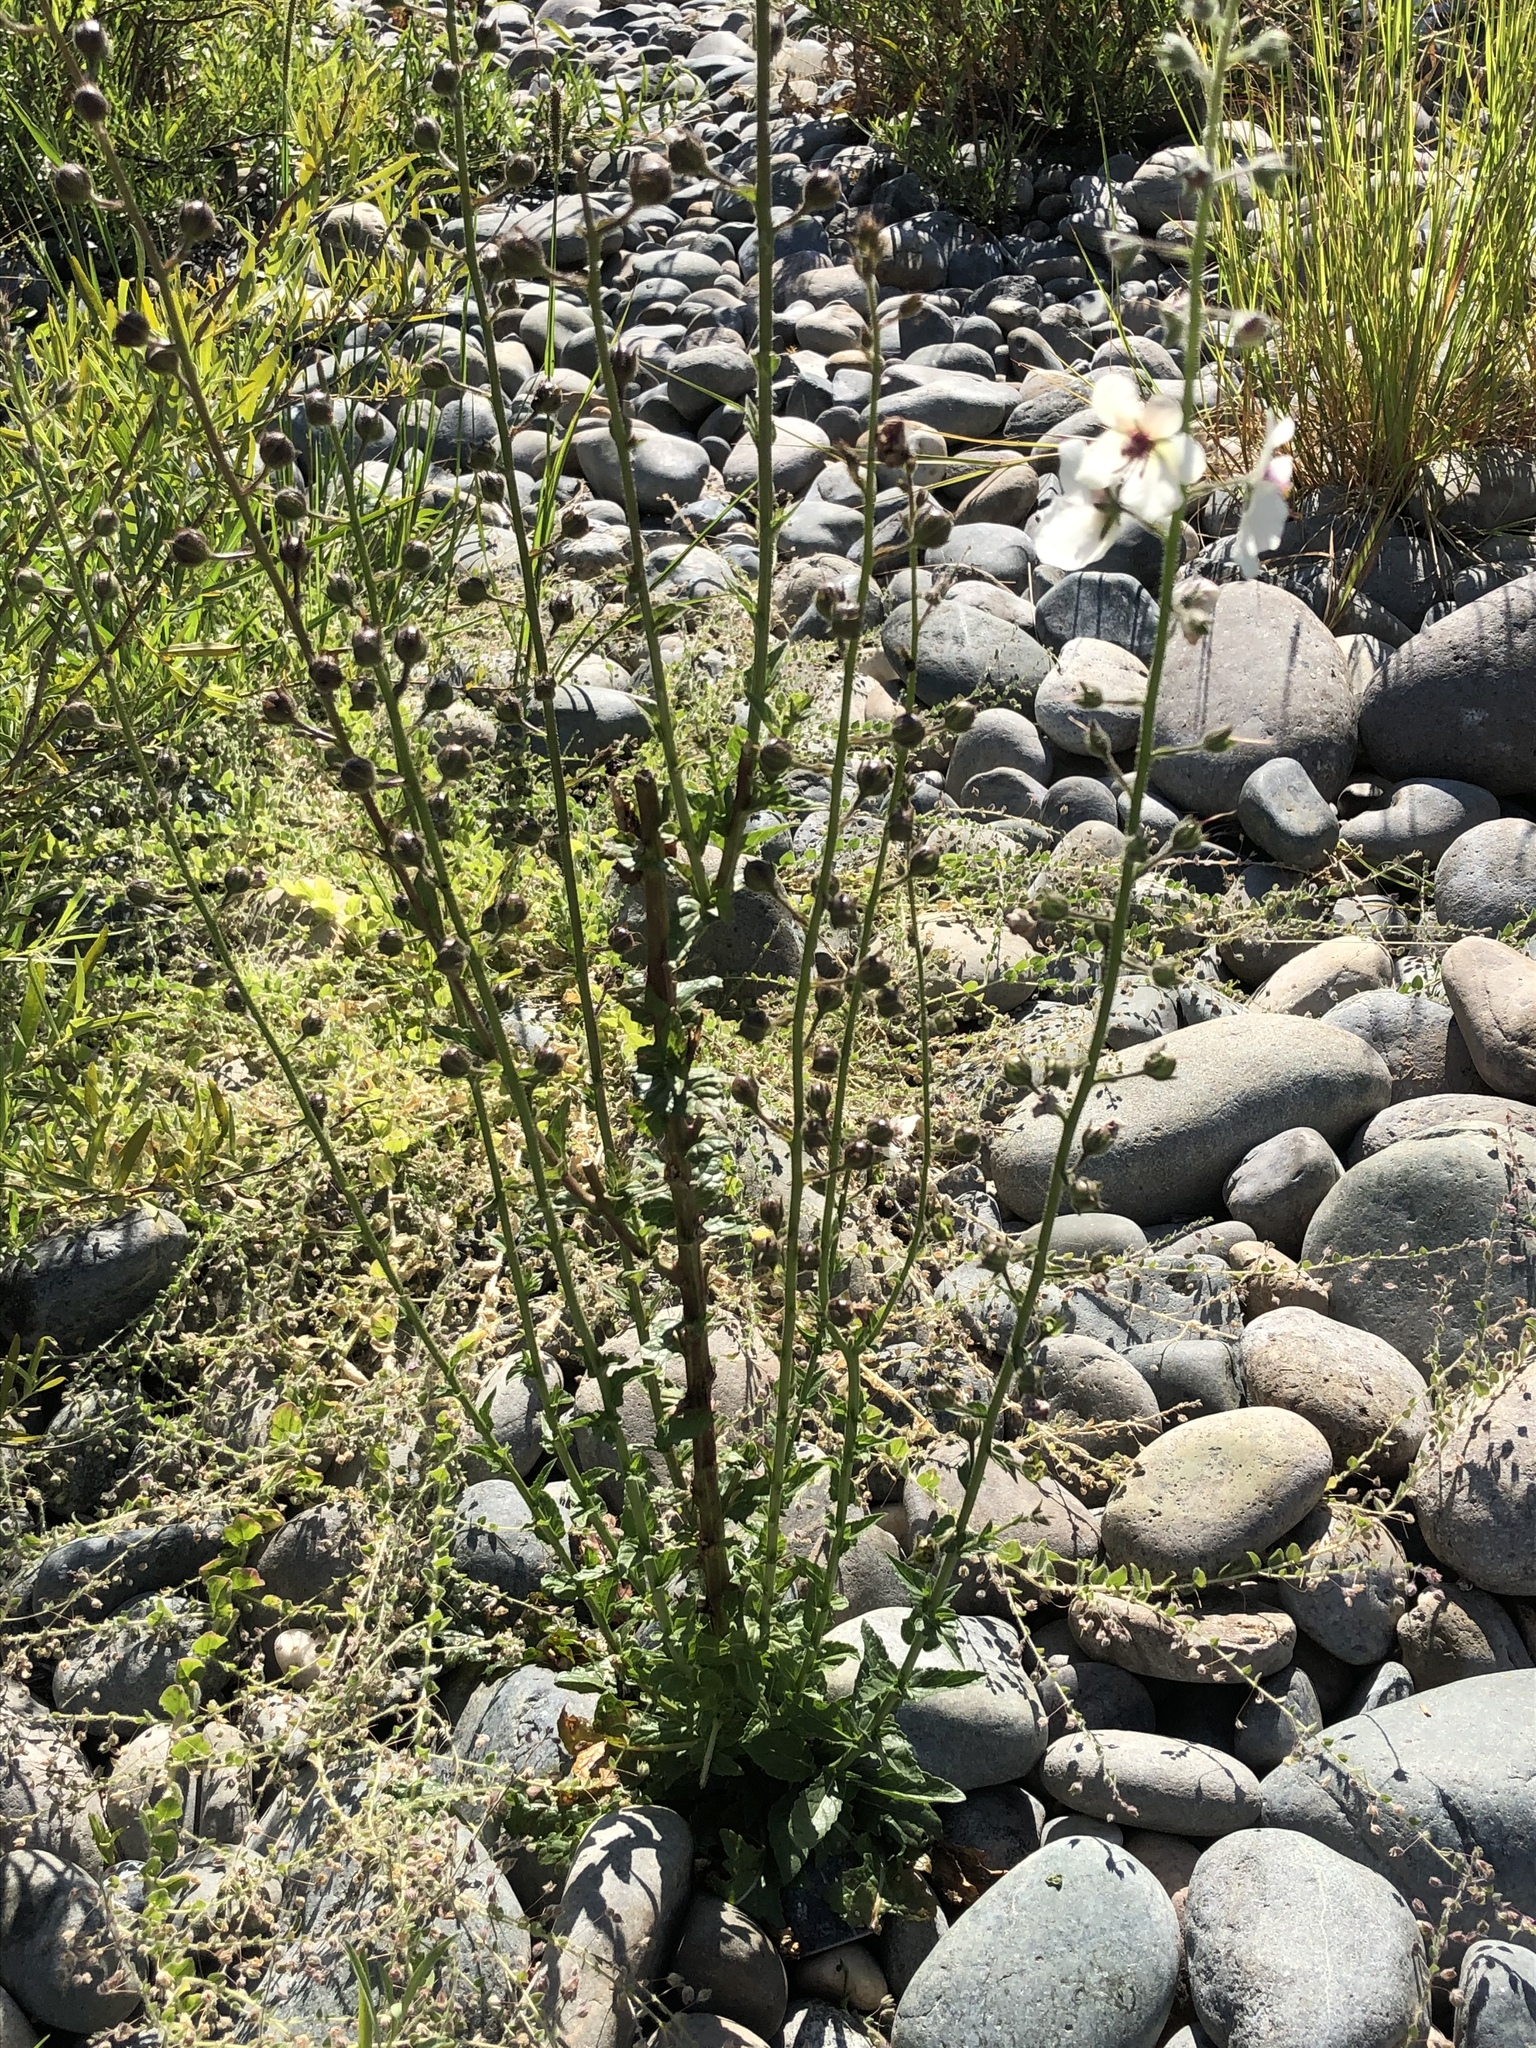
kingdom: Plantae
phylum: Tracheophyta
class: Magnoliopsida
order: Lamiales
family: Scrophulariaceae
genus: Verbascum
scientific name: Verbascum blattaria
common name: Moth mullein
